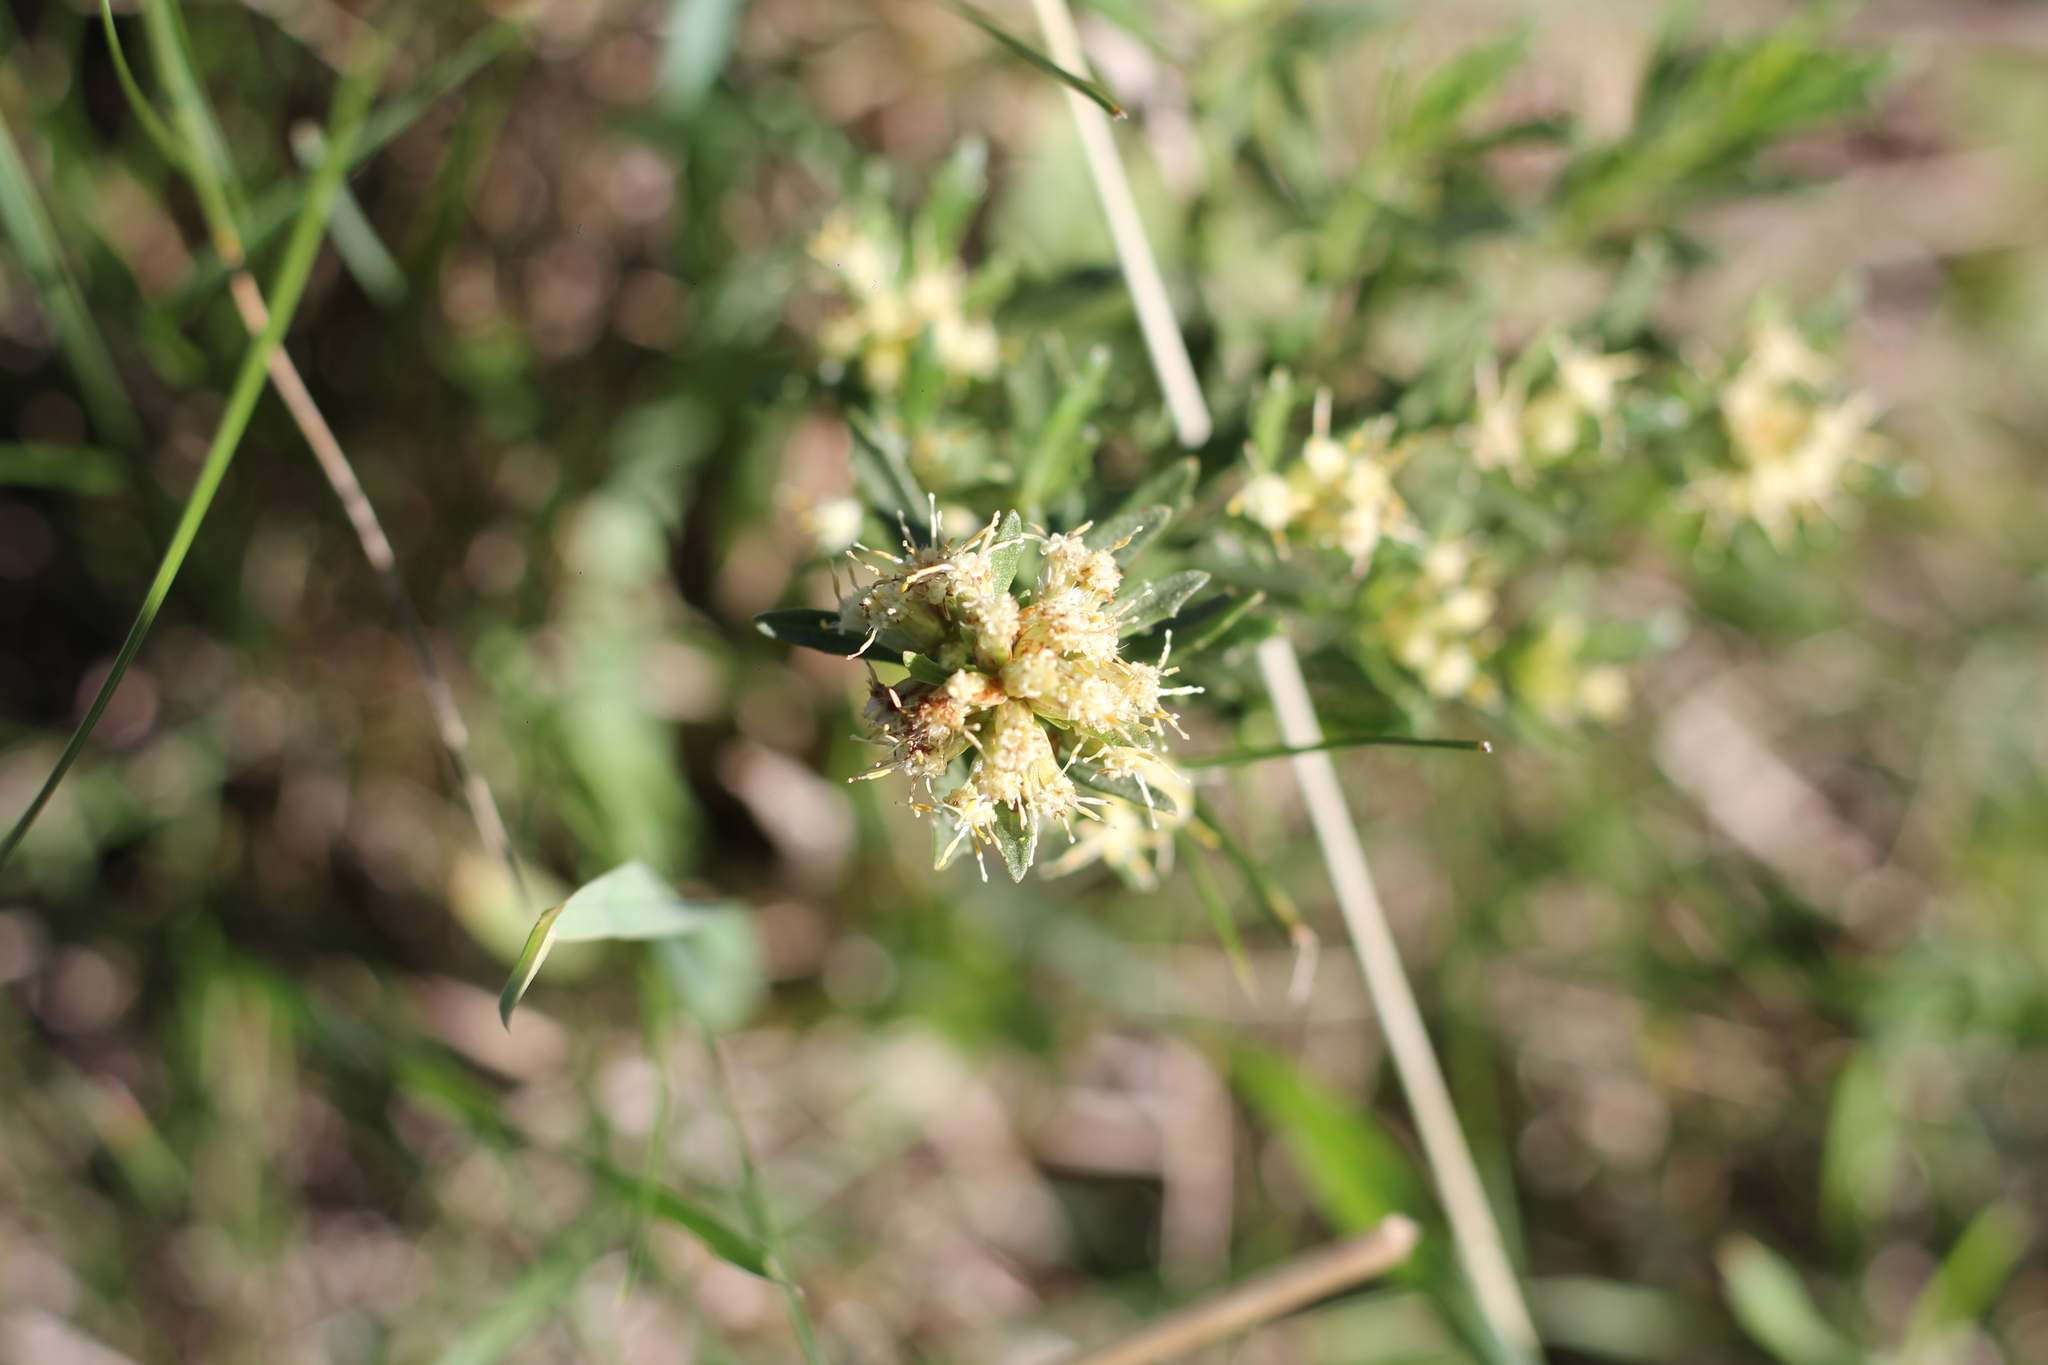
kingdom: Plantae
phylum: Tracheophyta
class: Magnoliopsida
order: Asterales
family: Asteraceae
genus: Baccharis
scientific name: Baccharis linearifolia
